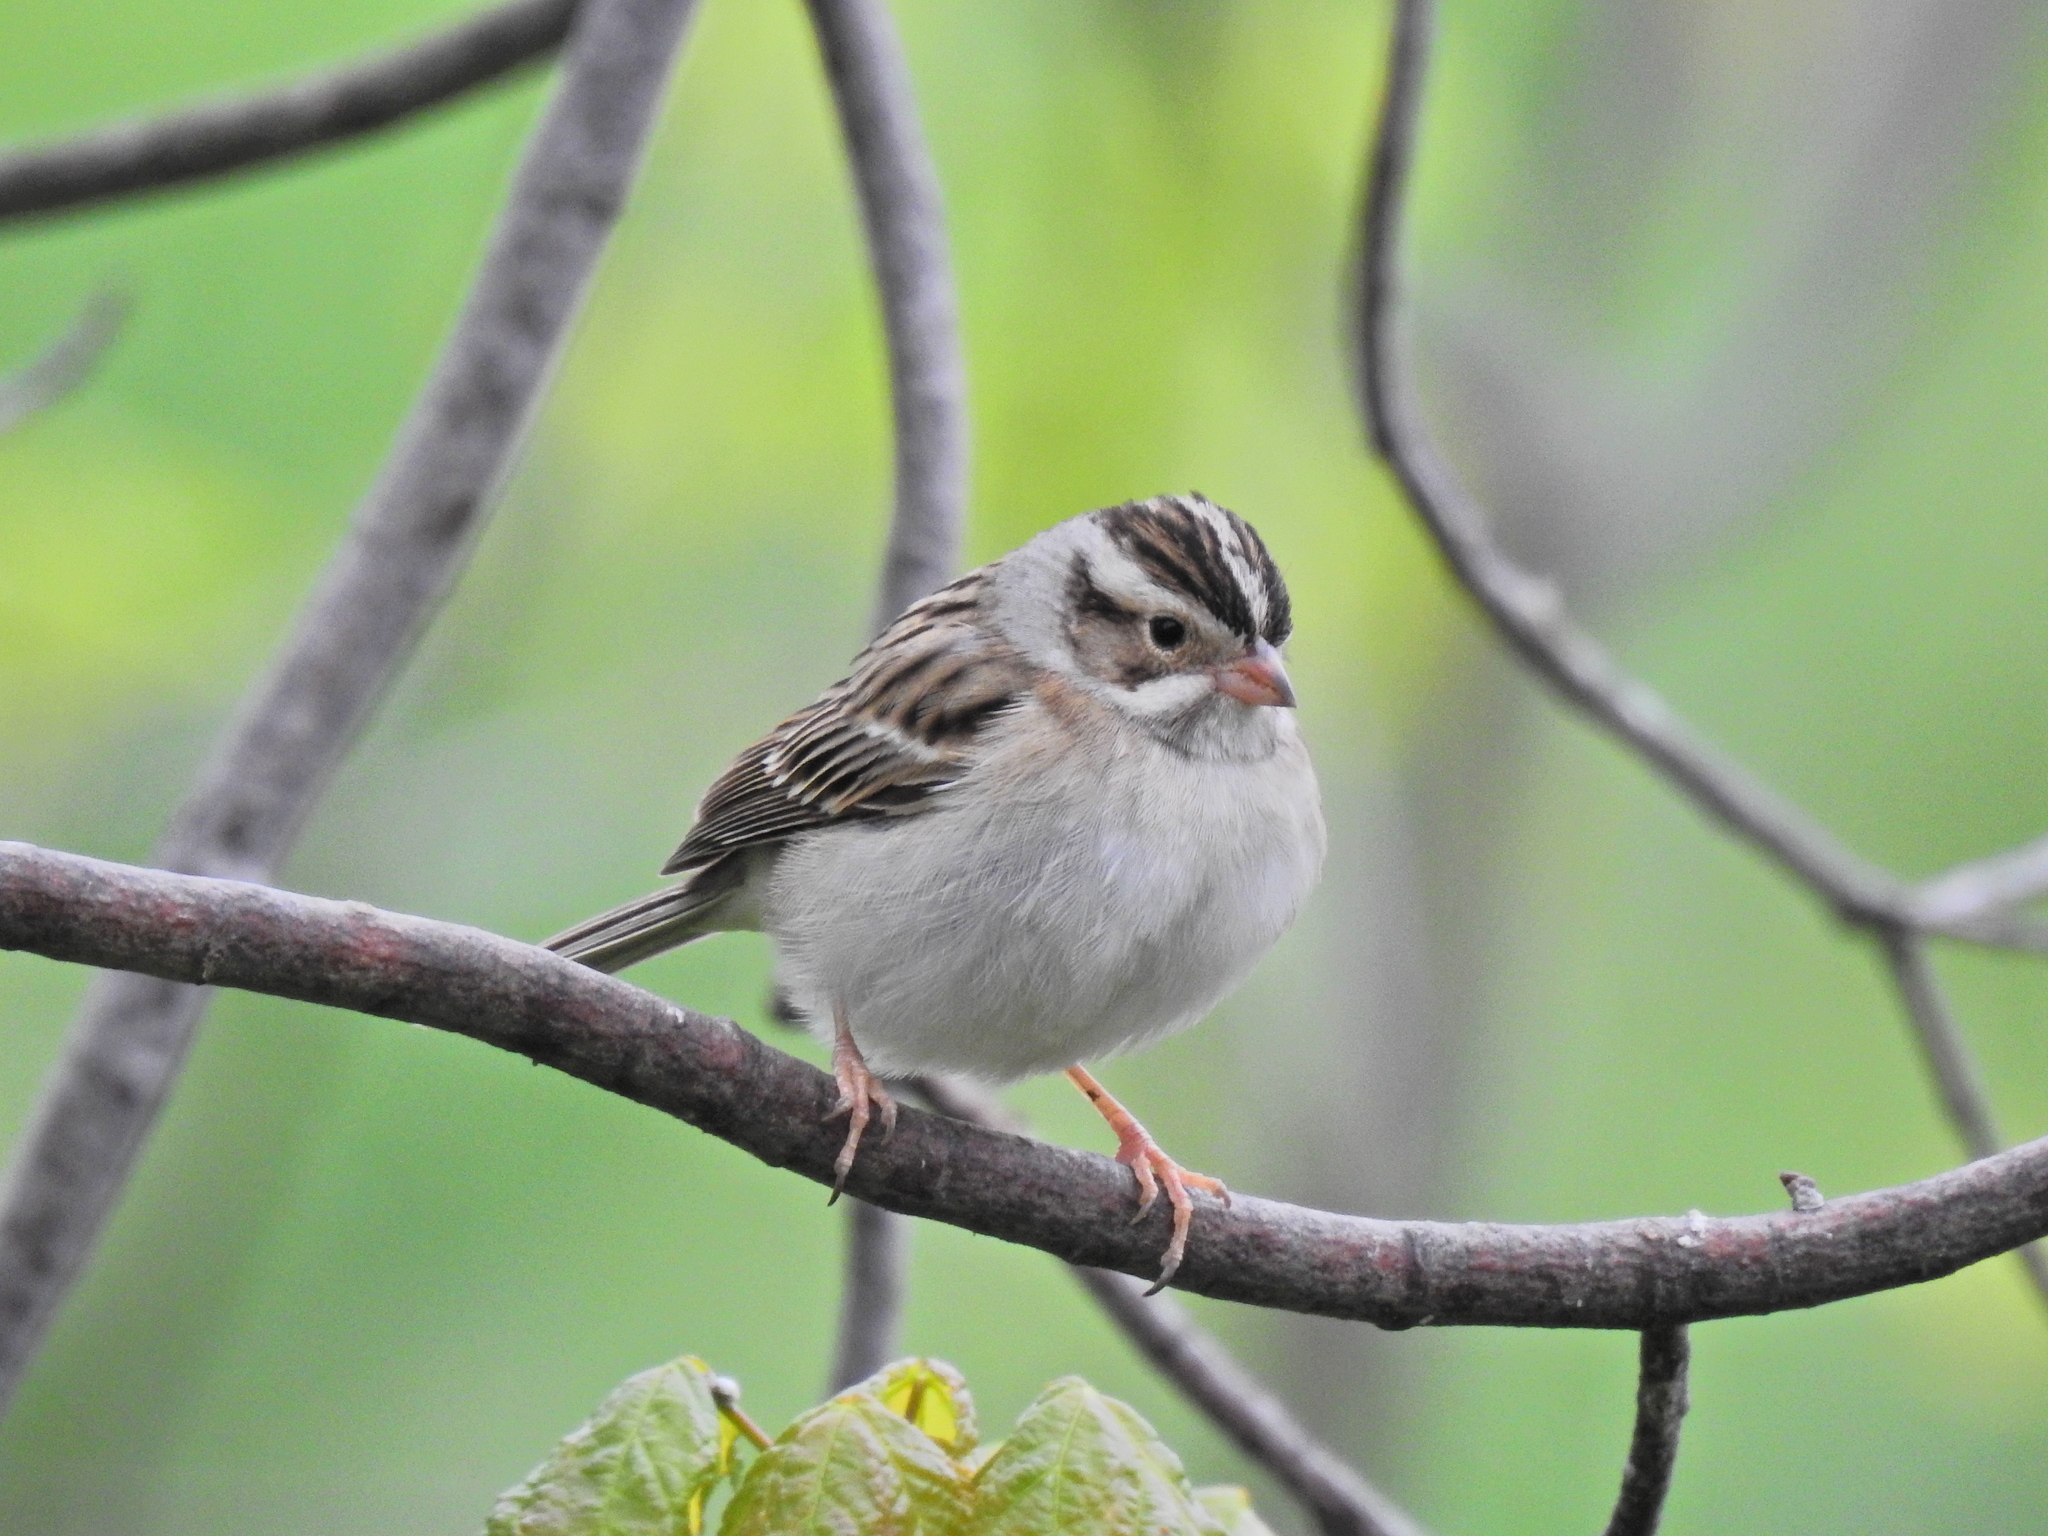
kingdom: Animalia
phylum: Chordata
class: Aves
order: Passeriformes
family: Passerellidae
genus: Spizella
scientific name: Spizella pallida
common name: Clay-colored sparrow
